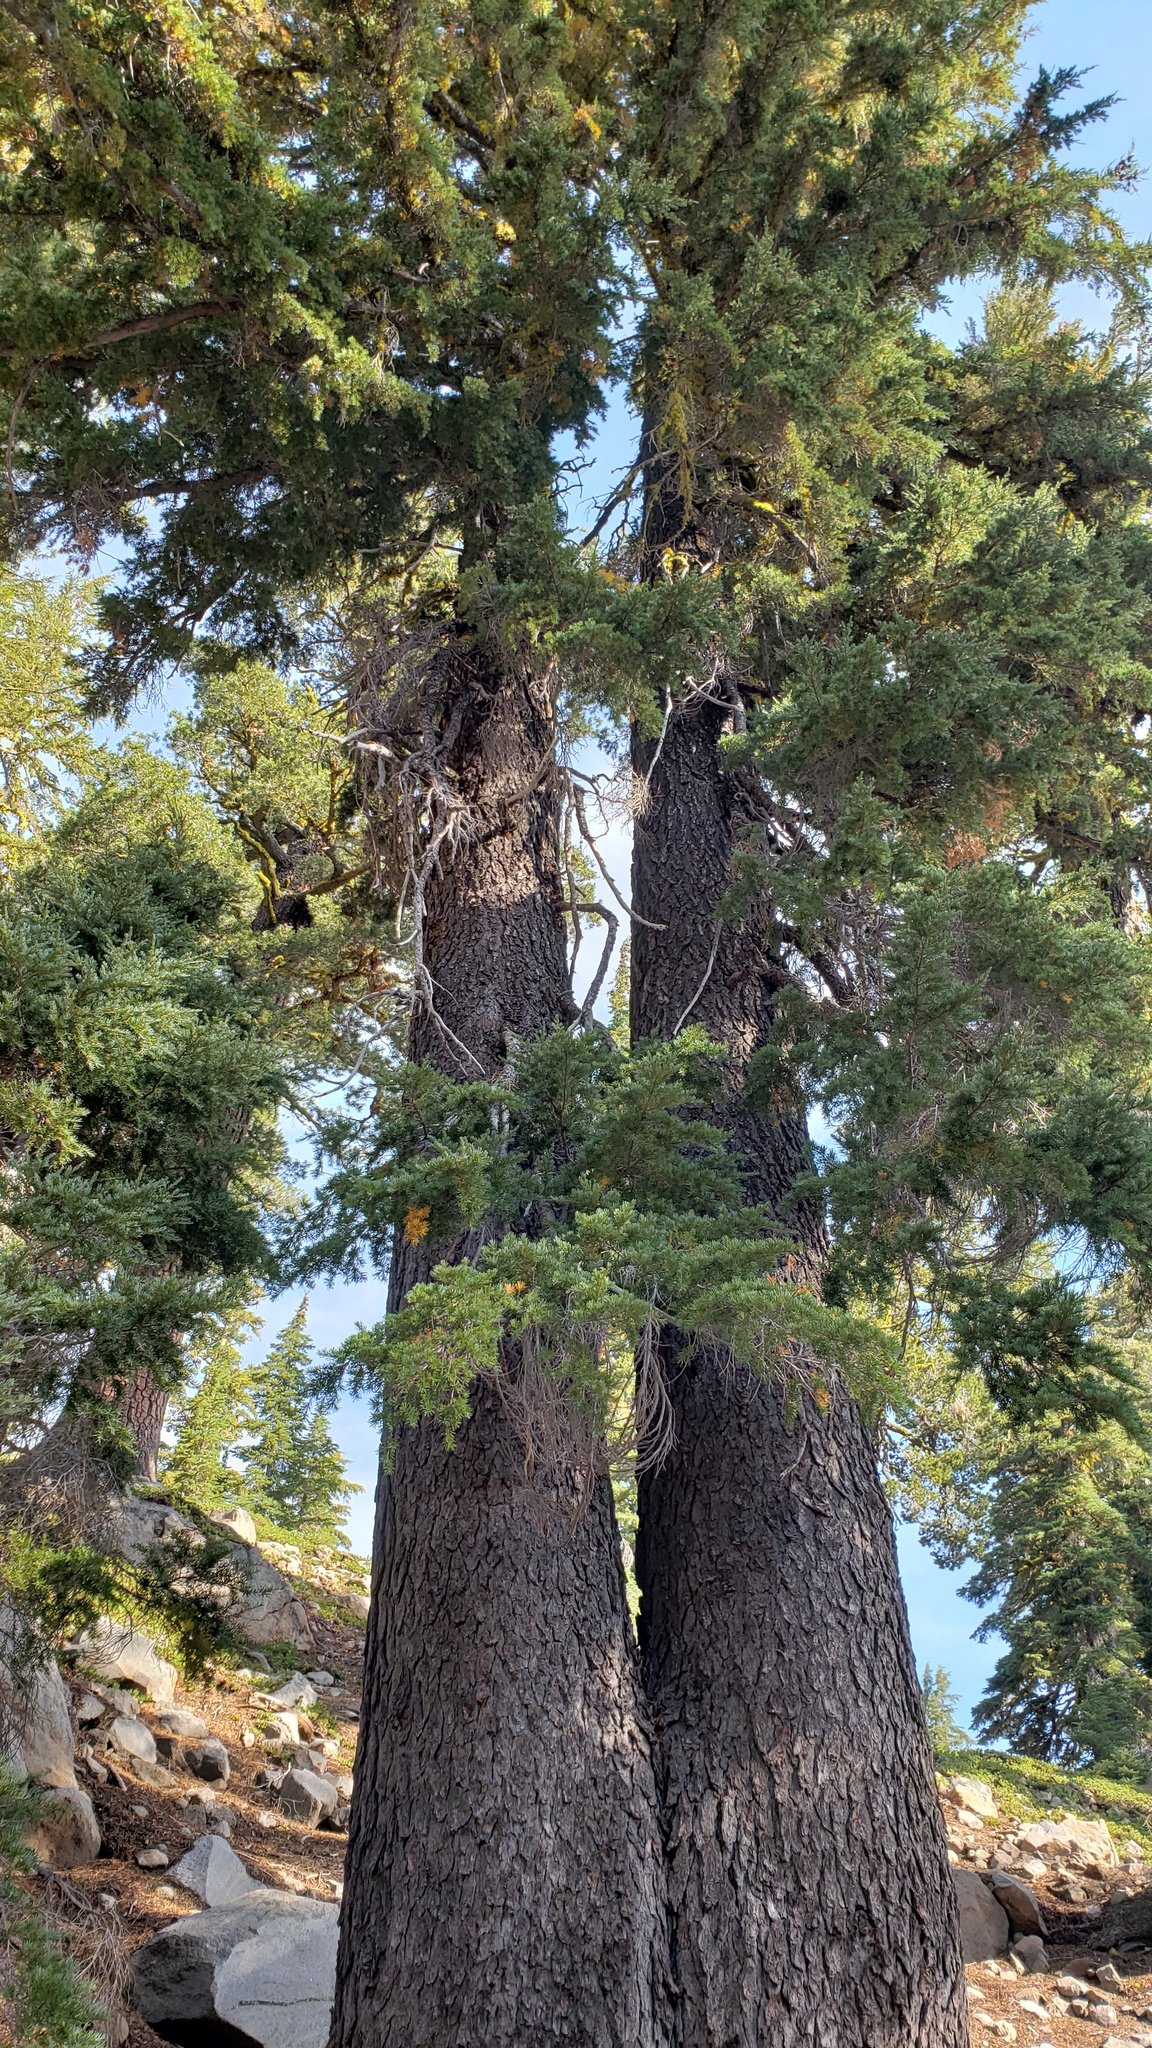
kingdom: Plantae
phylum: Tracheophyta
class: Pinopsida
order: Pinales
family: Pinaceae
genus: Tsuga
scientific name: Tsuga mertensiana
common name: Mountain hemlock
